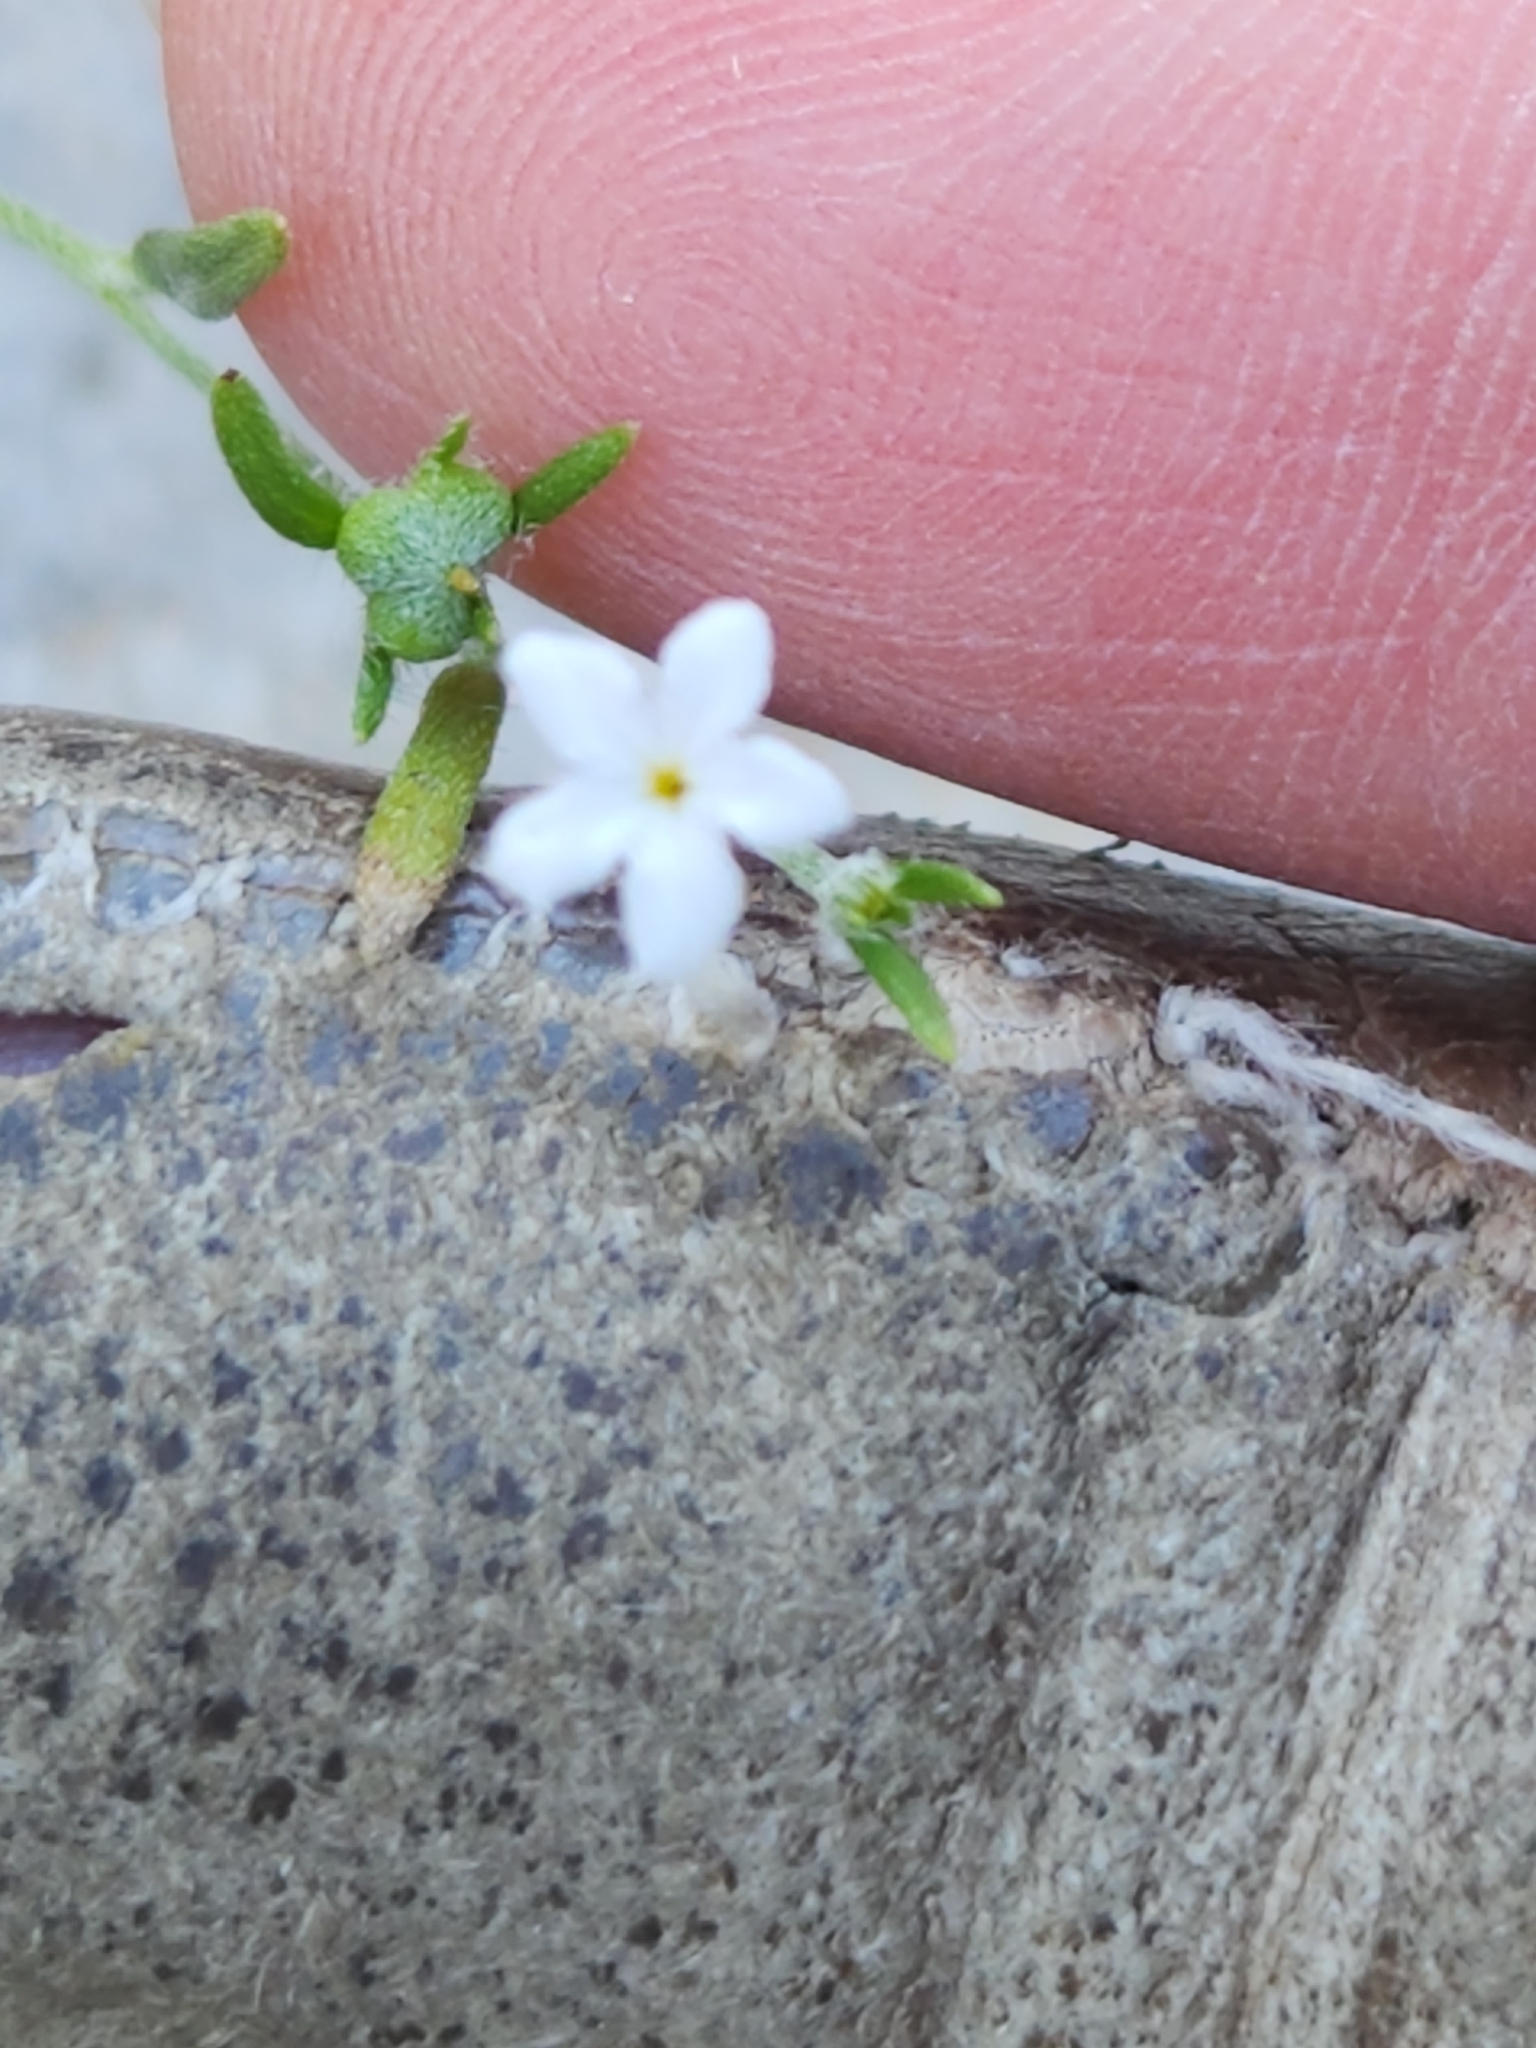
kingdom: Plantae
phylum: Tracheophyta
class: Magnoliopsida
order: Boraginales
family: Heliotropiaceae
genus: Euploca
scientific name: Euploca tenella
